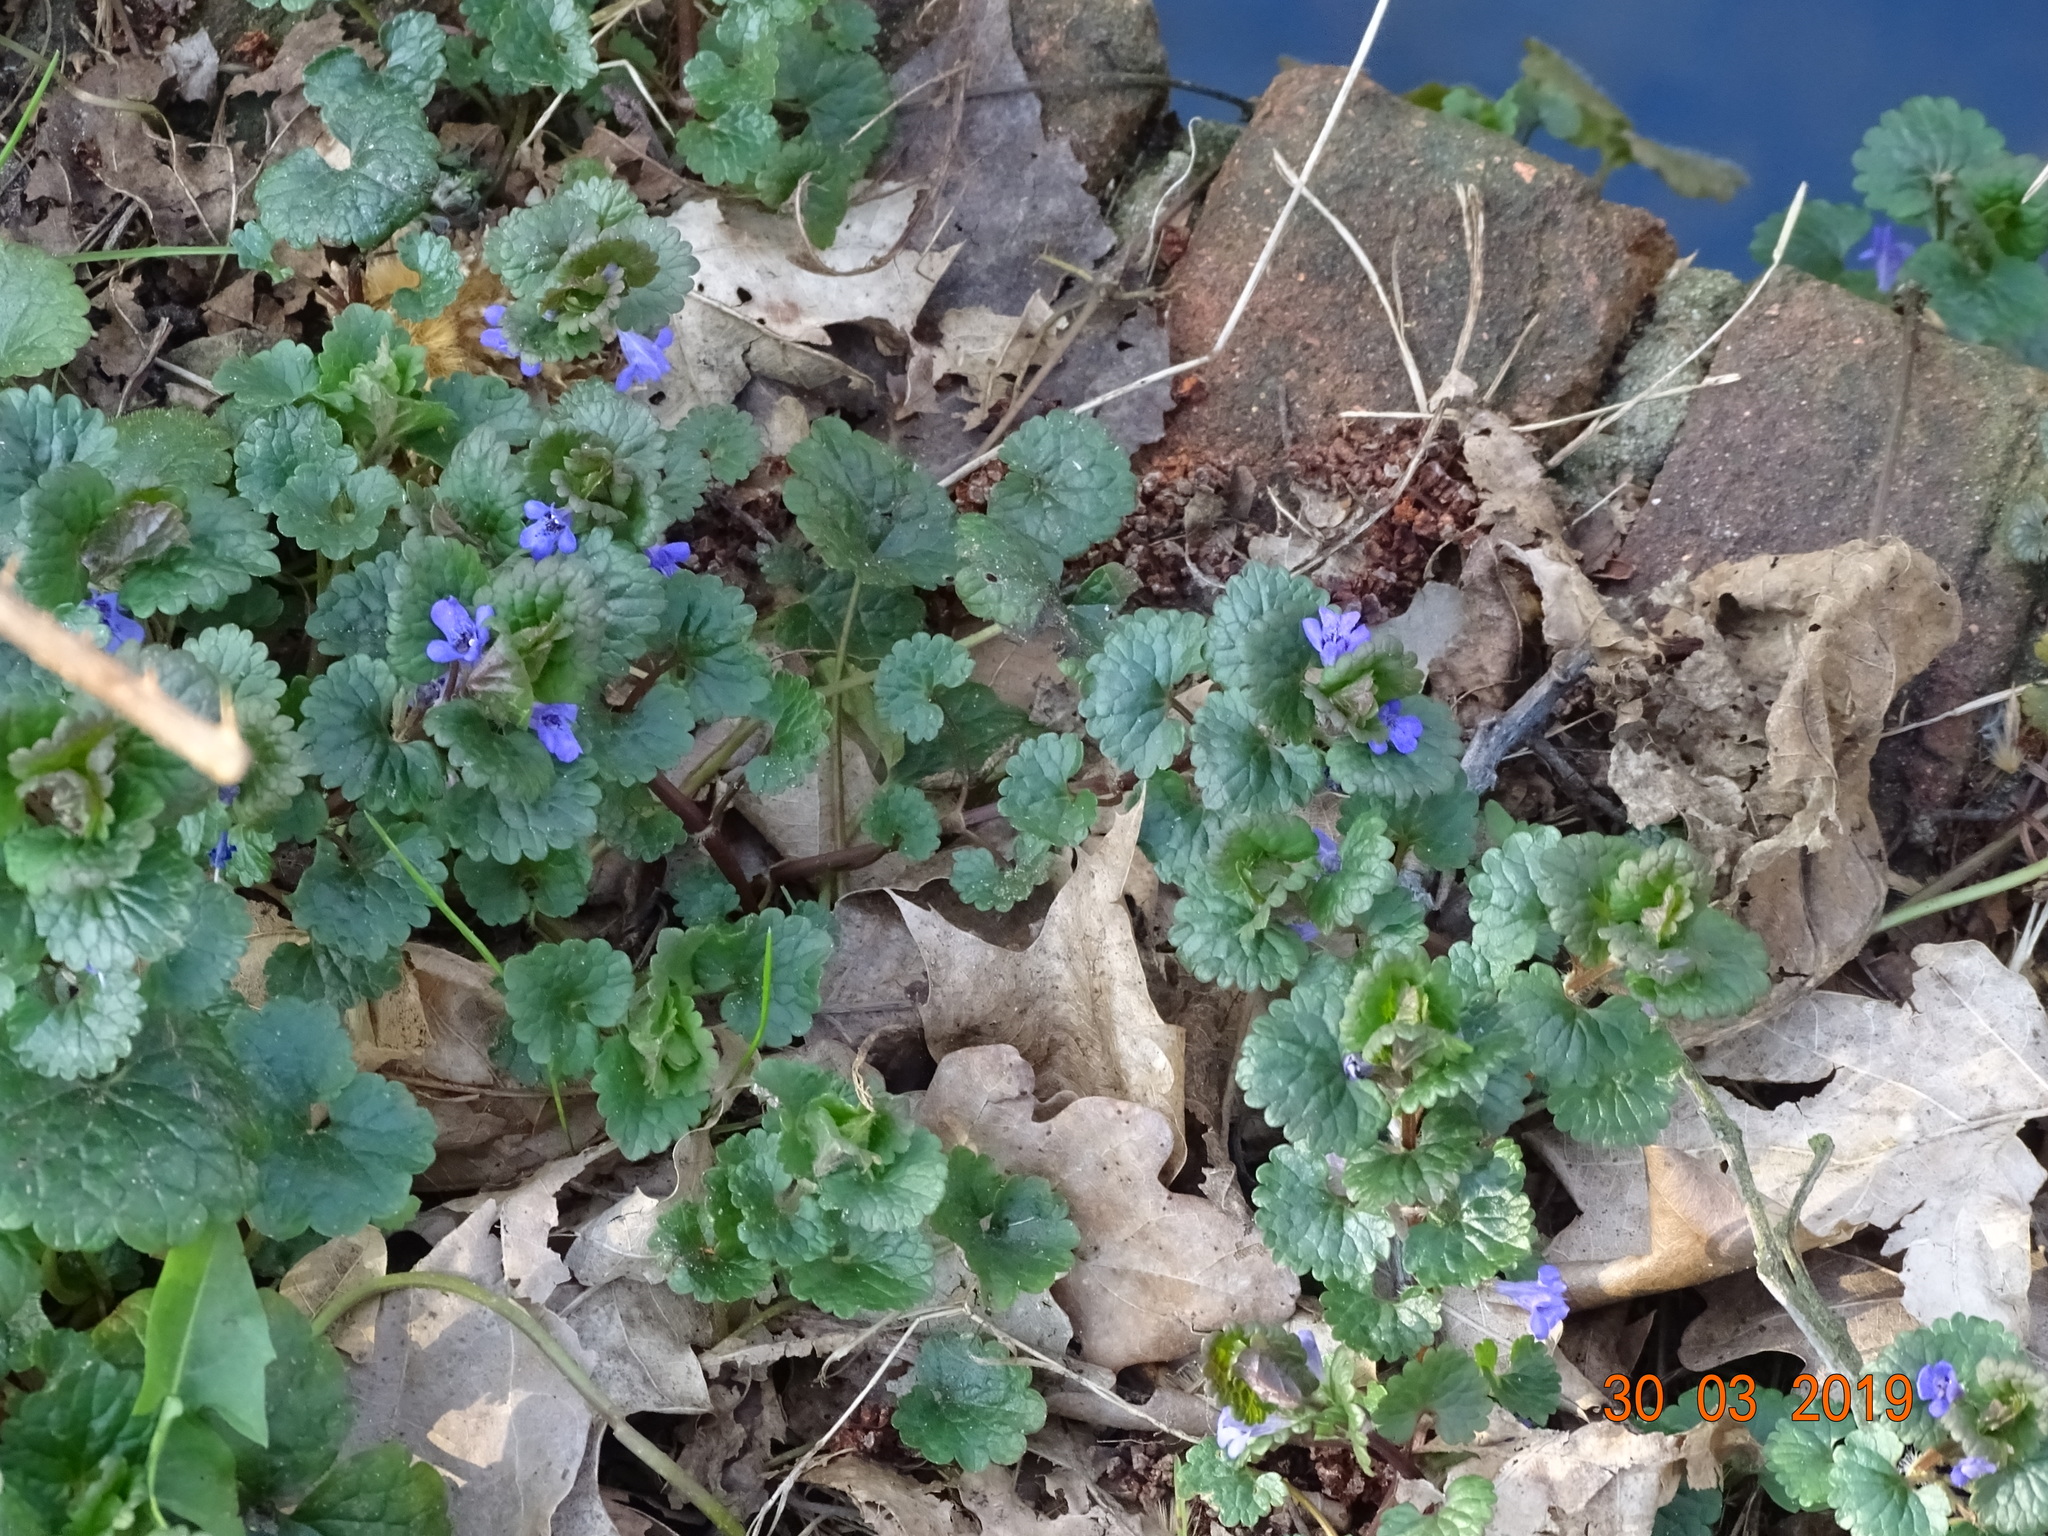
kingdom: Plantae
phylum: Tracheophyta
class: Magnoliopsida
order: Lamiales
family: Lamiaceae
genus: Glechoma
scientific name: Glechoma hederacea
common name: Ground ivy
